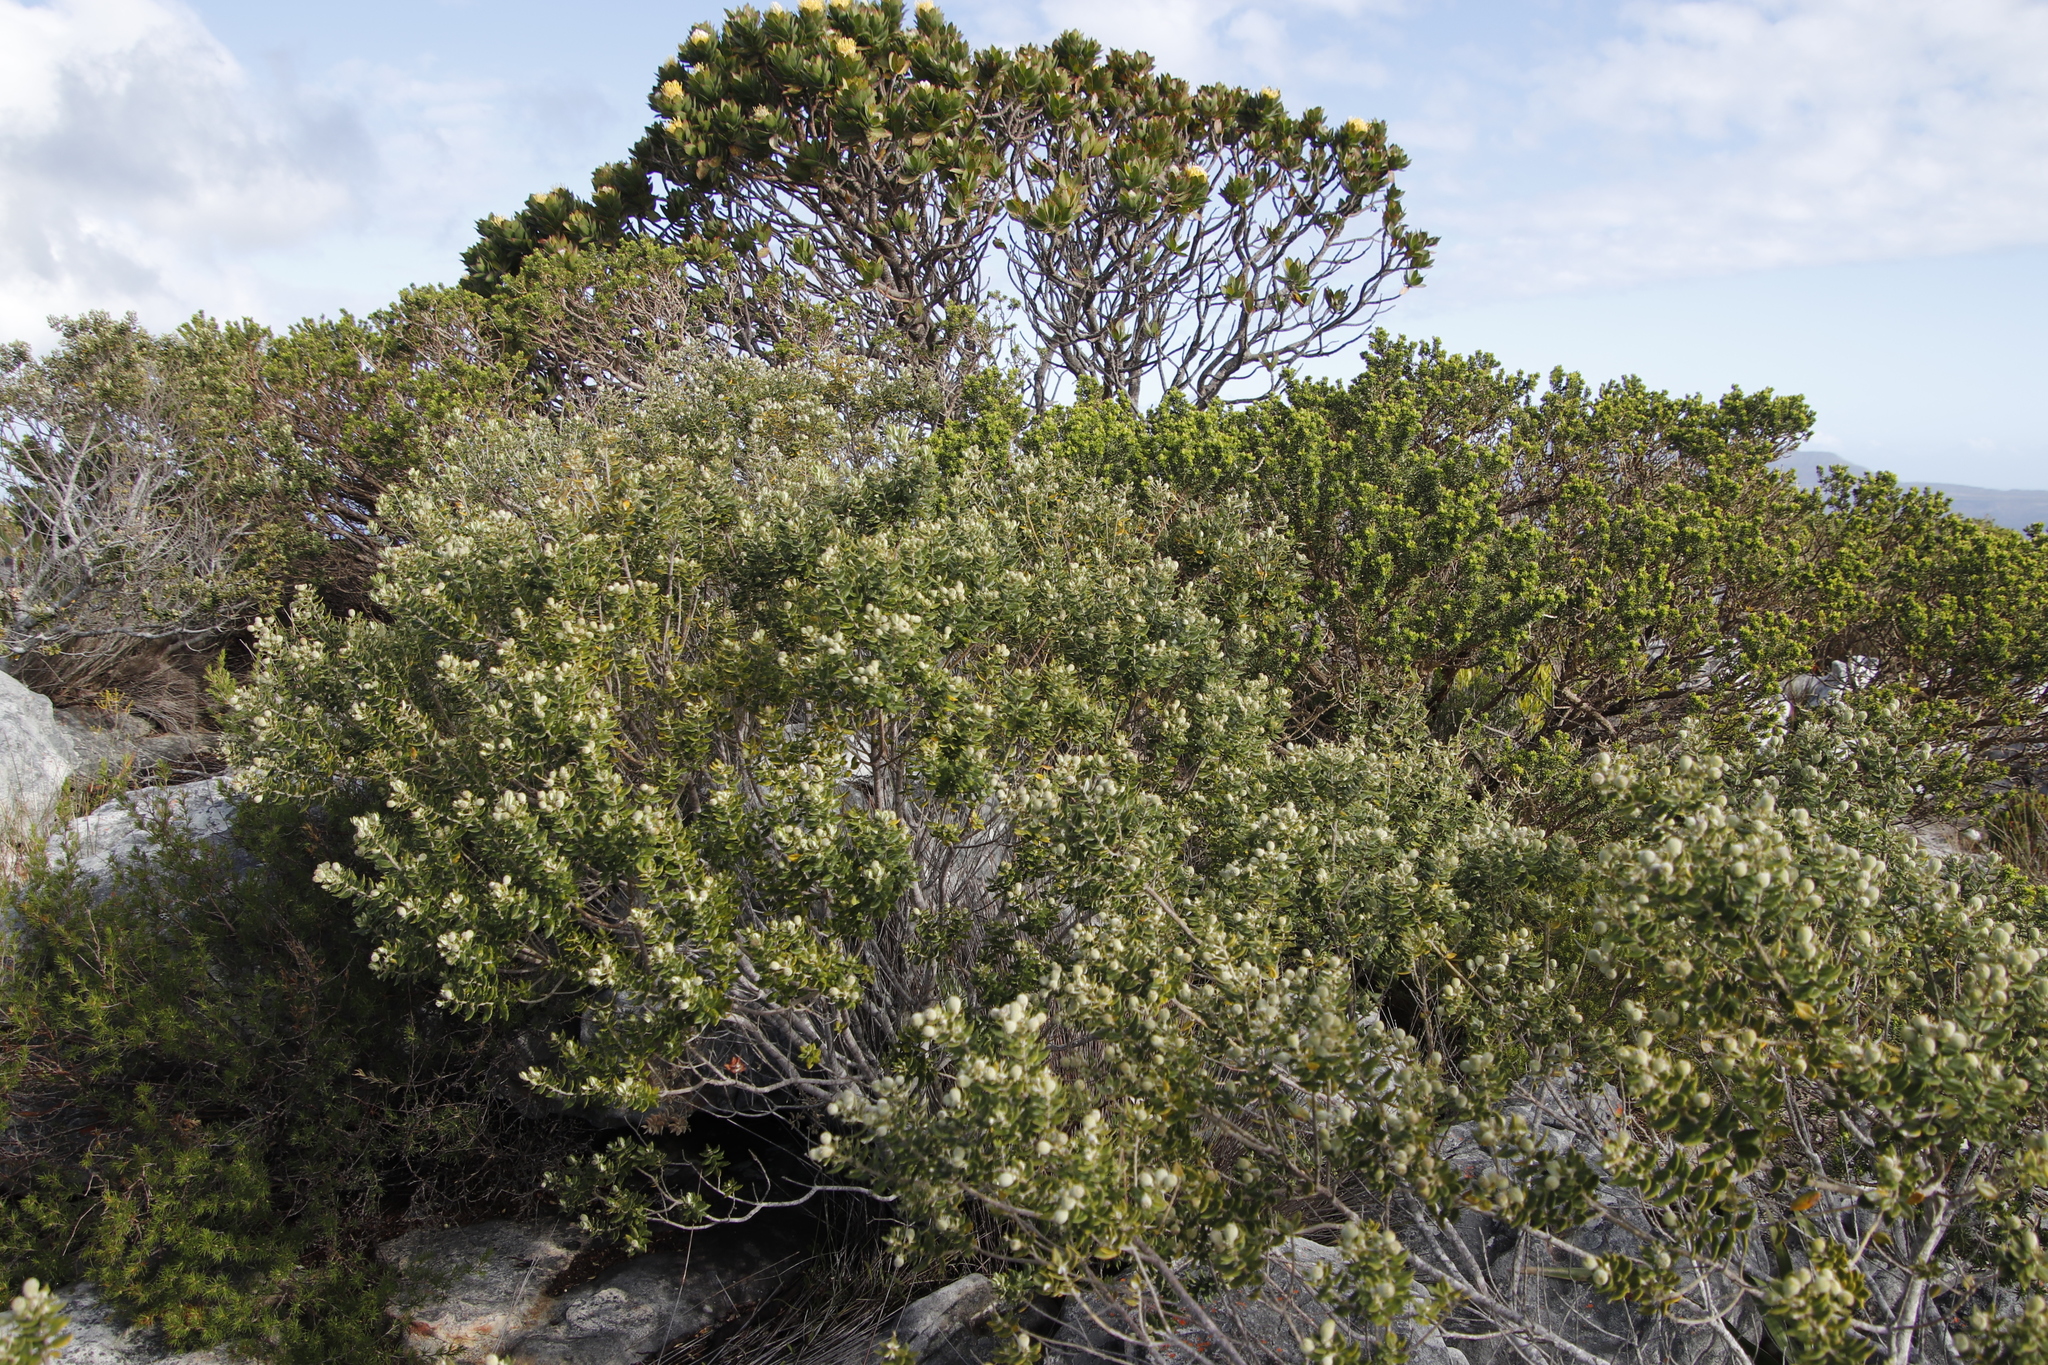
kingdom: Plantae
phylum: Tracheophyta
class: Magnoliopsida
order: Rosales
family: Rhamnaceae
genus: Phylica
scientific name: Phylica buxifolia
